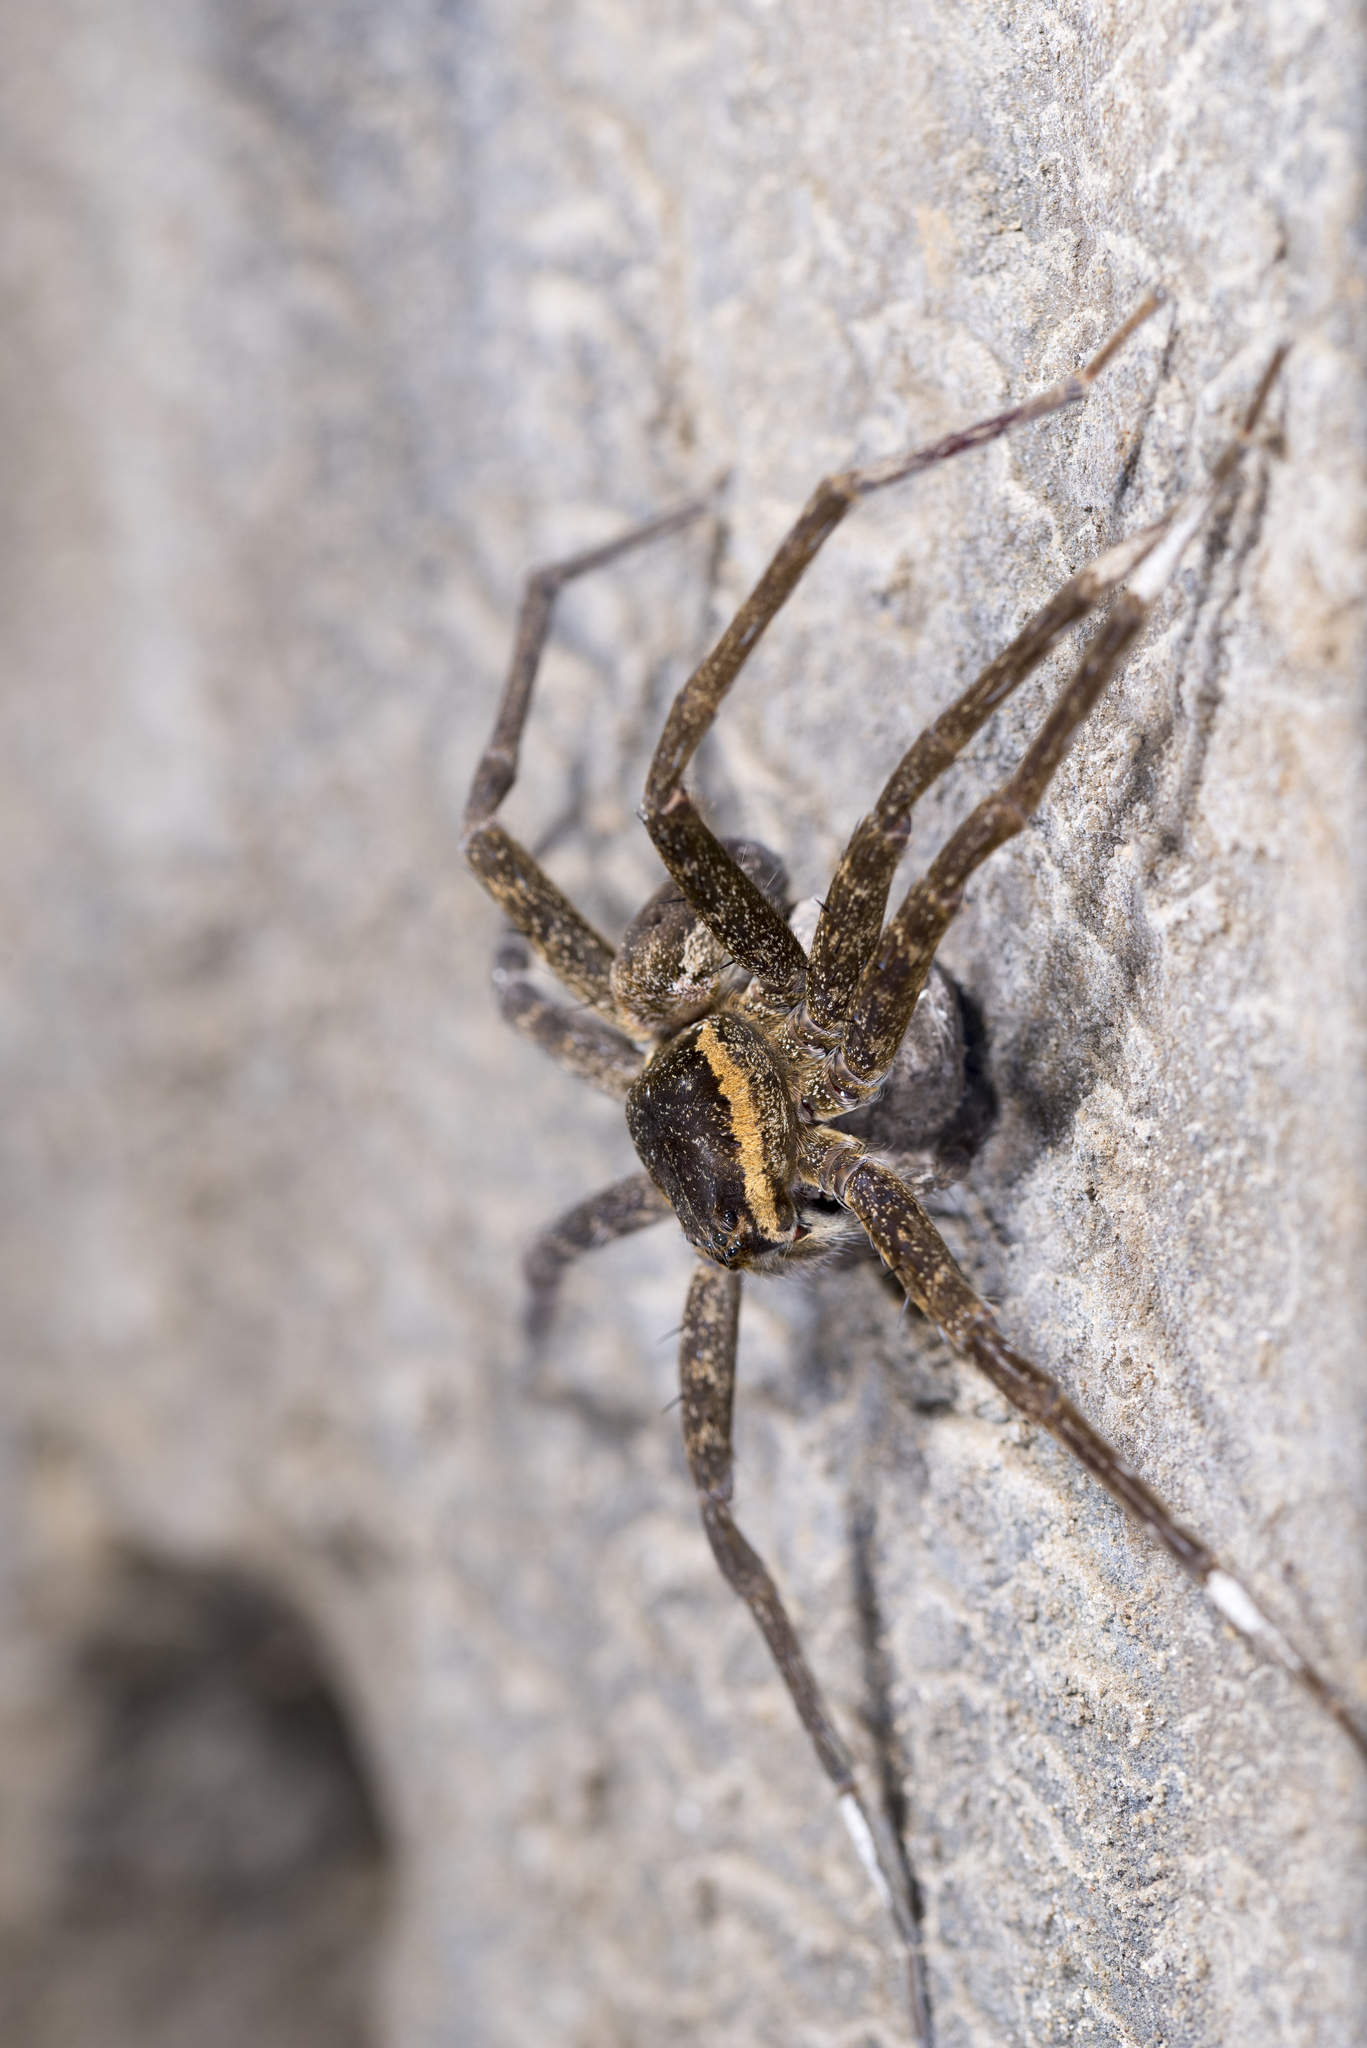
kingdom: Animalia
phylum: Arthropoda
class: Arachnida
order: Araneae
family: Pisauridae
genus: Dolomedes
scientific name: Dolomedes raptor
